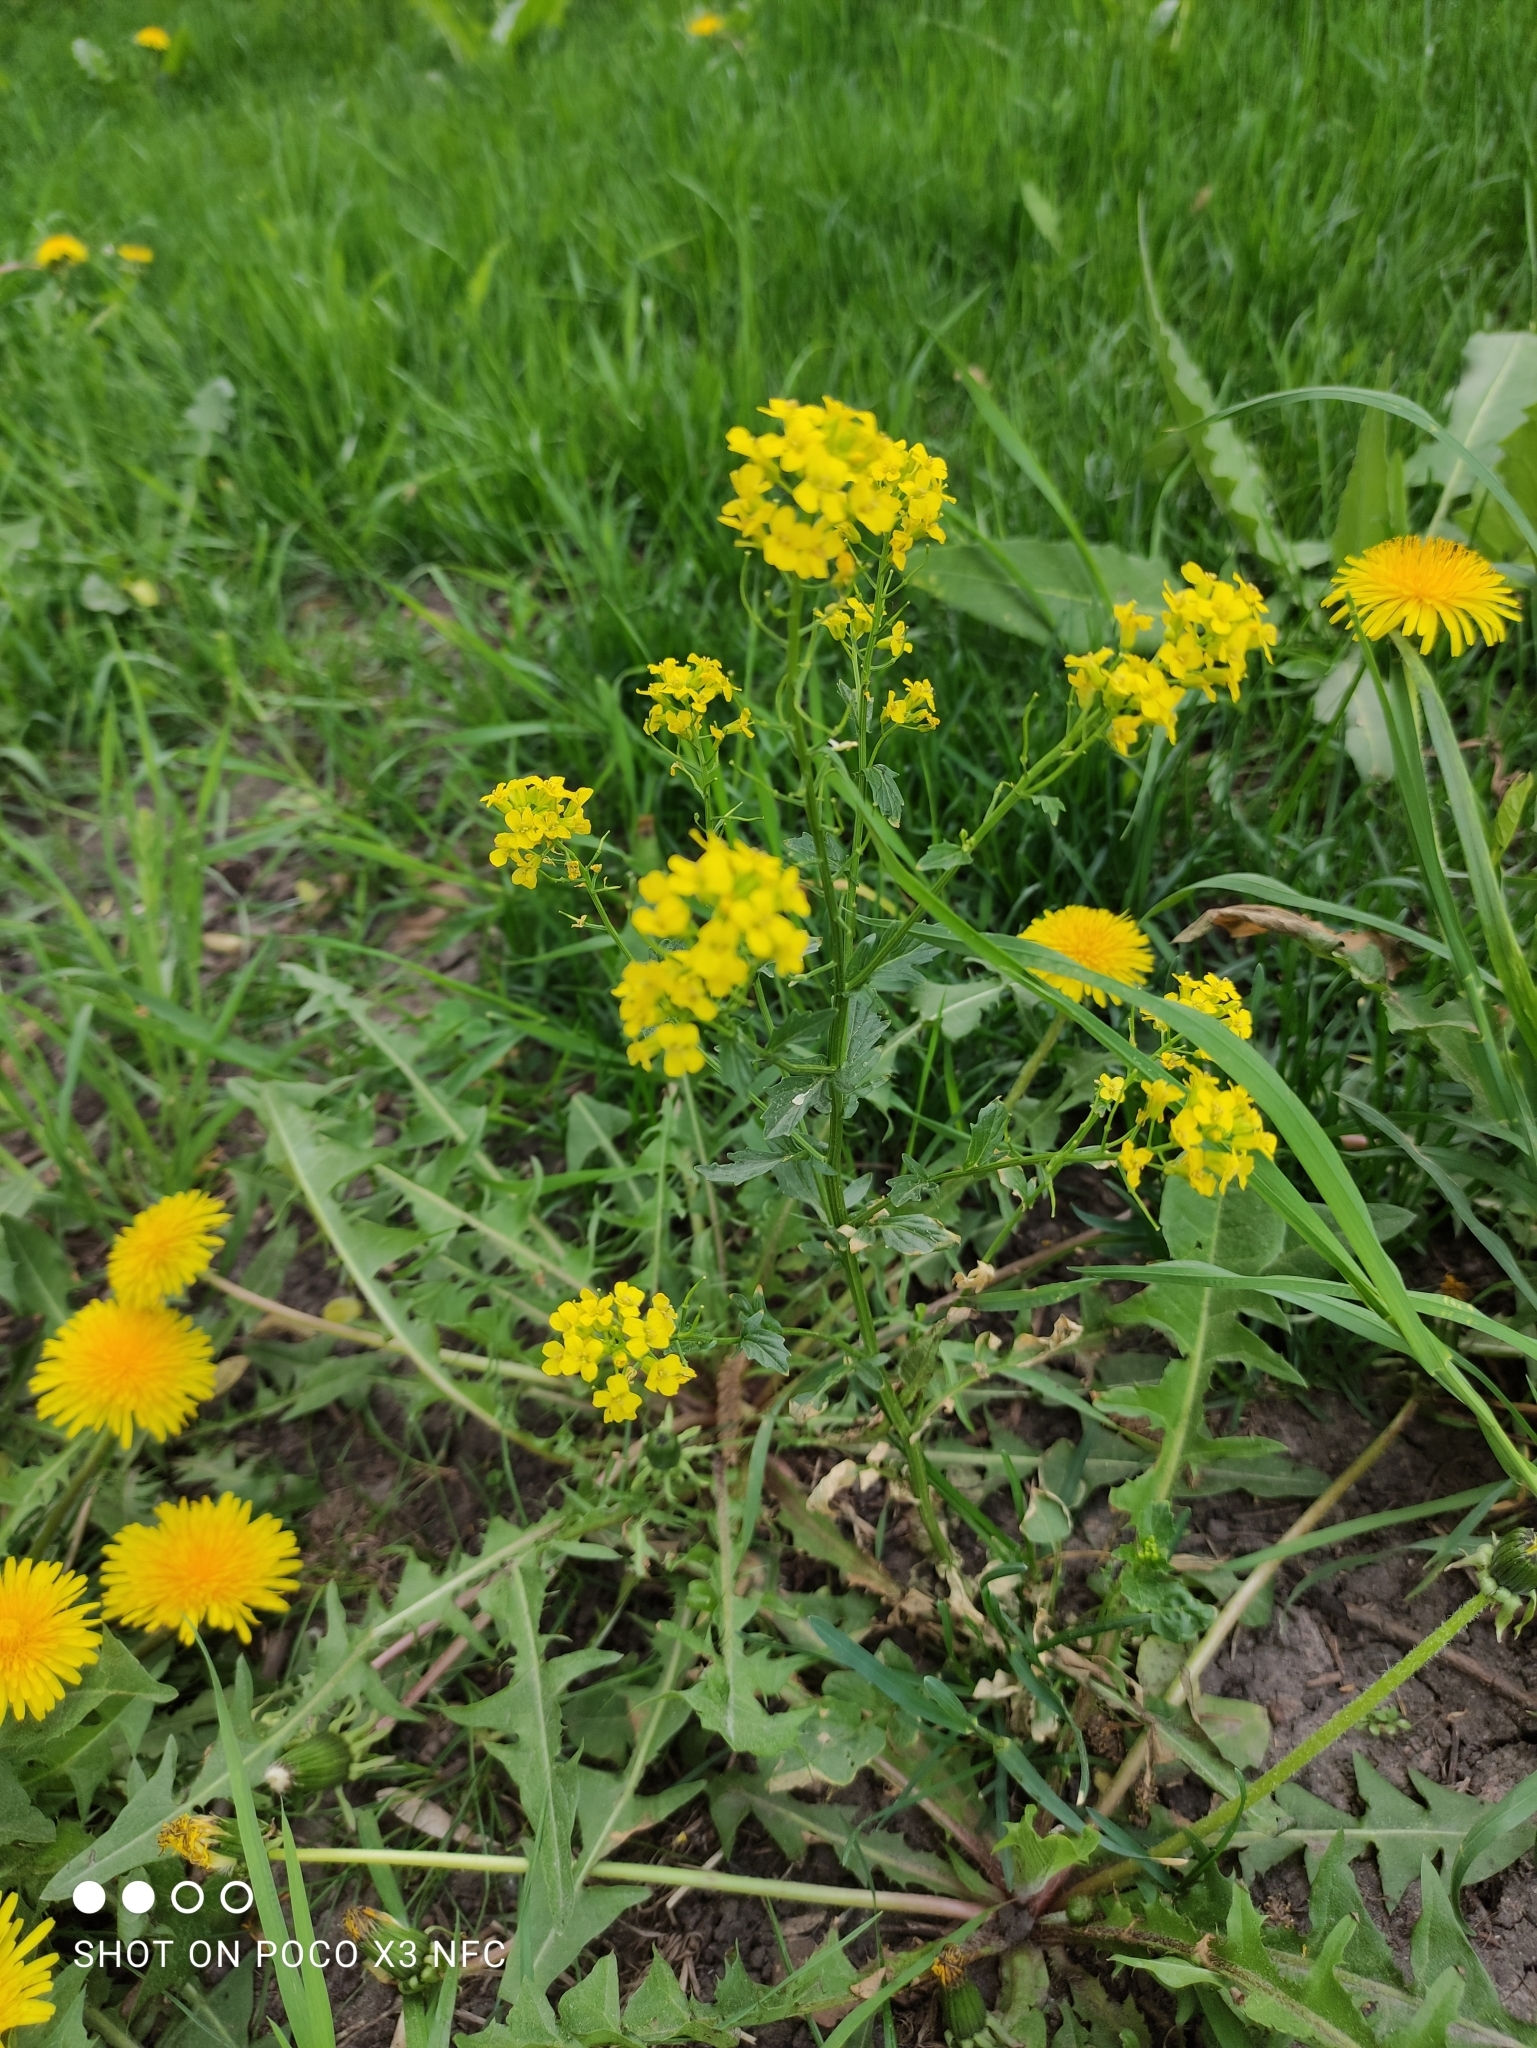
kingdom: Plantae
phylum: Tracheophyta
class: Magnoliopsida
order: Brassicales
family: Brassicaceae
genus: Barbarea
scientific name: Barbarea vulgaris
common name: Cressy-greens
